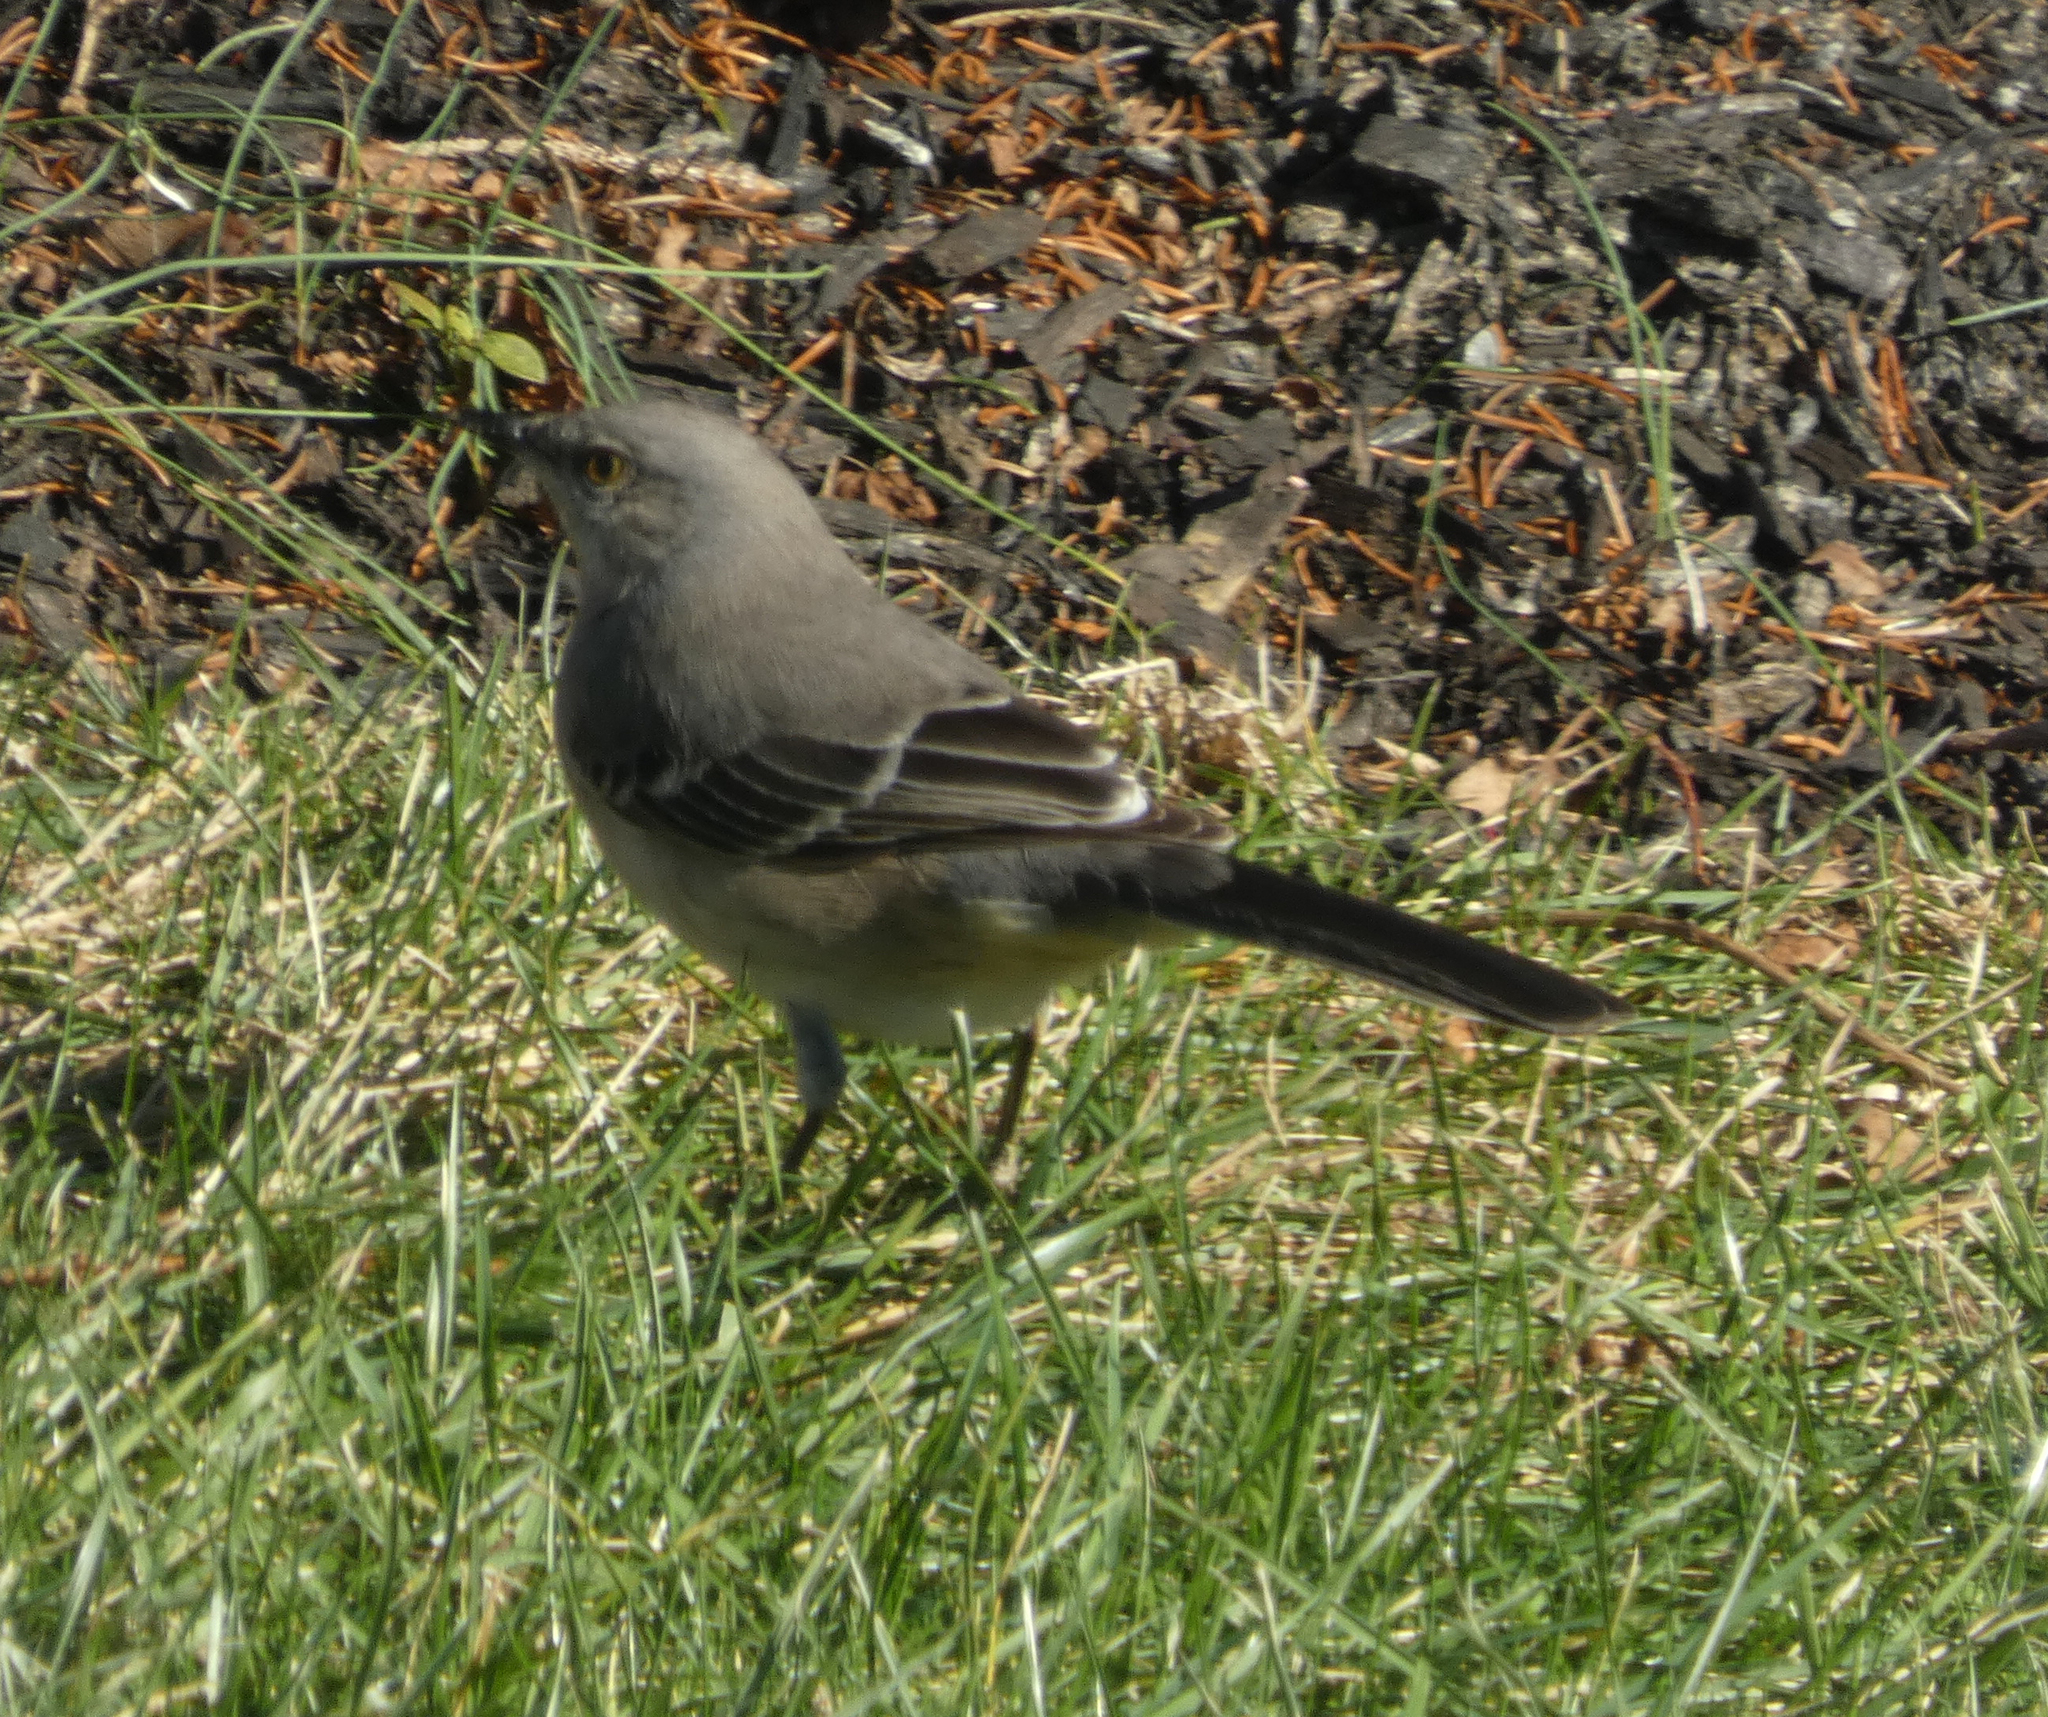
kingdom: Animalia
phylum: Chordata
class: Aves
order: Passeriformes
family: Mimidae
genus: Mimus
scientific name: Mimus polyglottos
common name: Northern mockingbird
